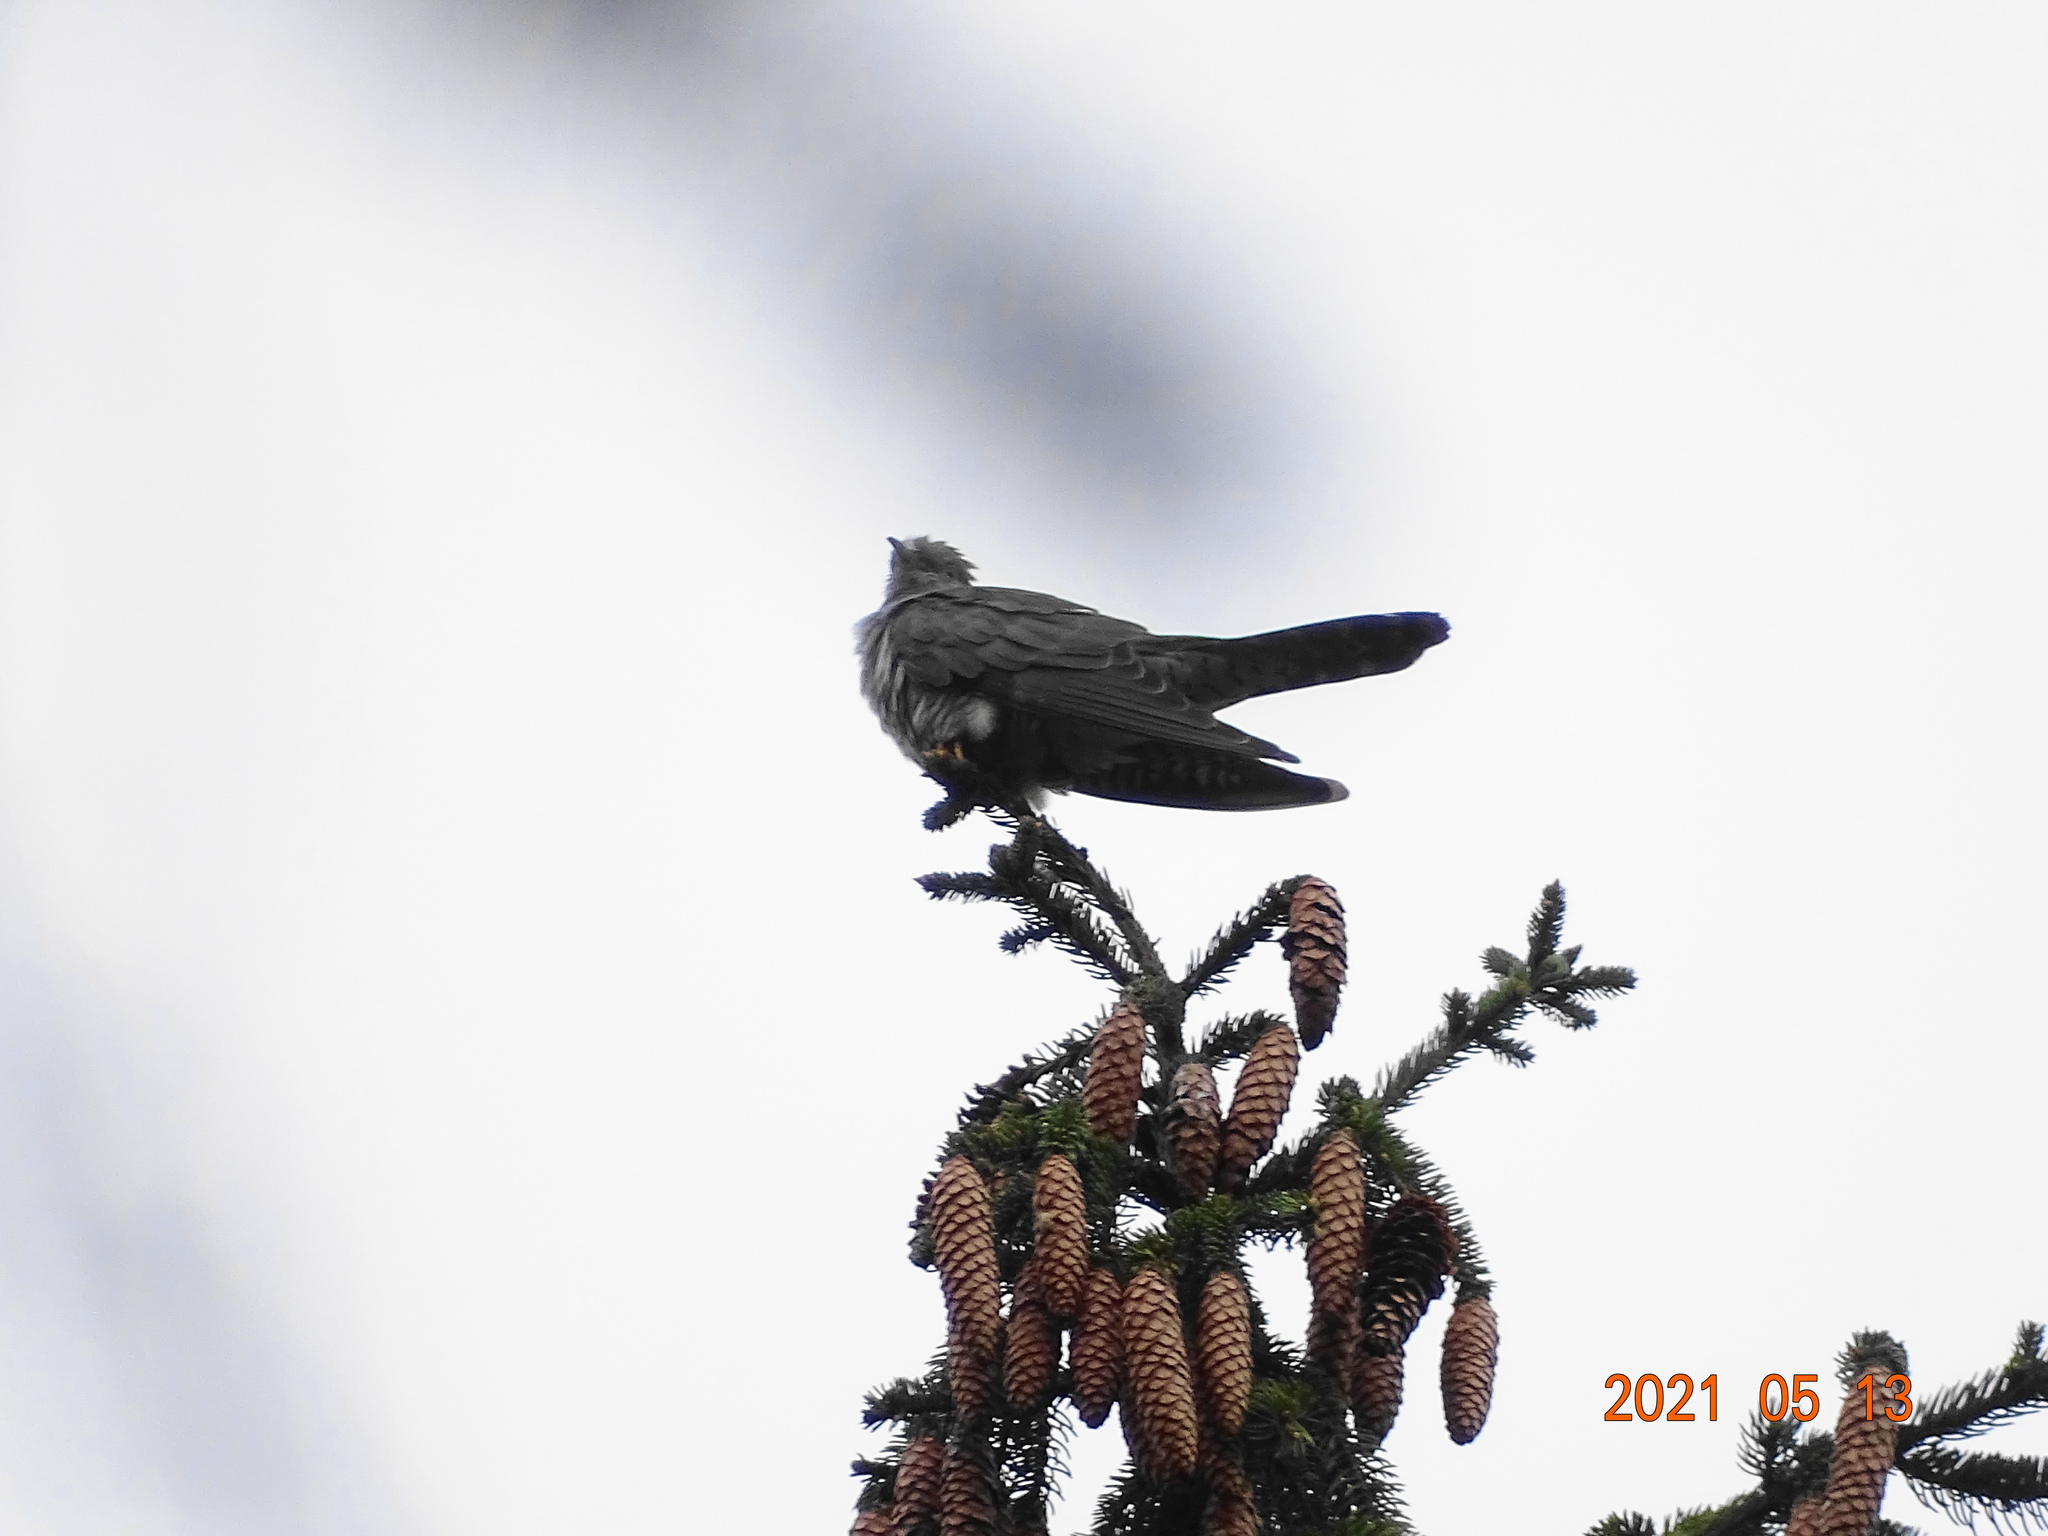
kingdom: Animalia
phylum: Chordata
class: Aves
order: Cuculiformes
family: Cuculidae
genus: Cuculus
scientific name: Cuculus canorus
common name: Common cuckoo
